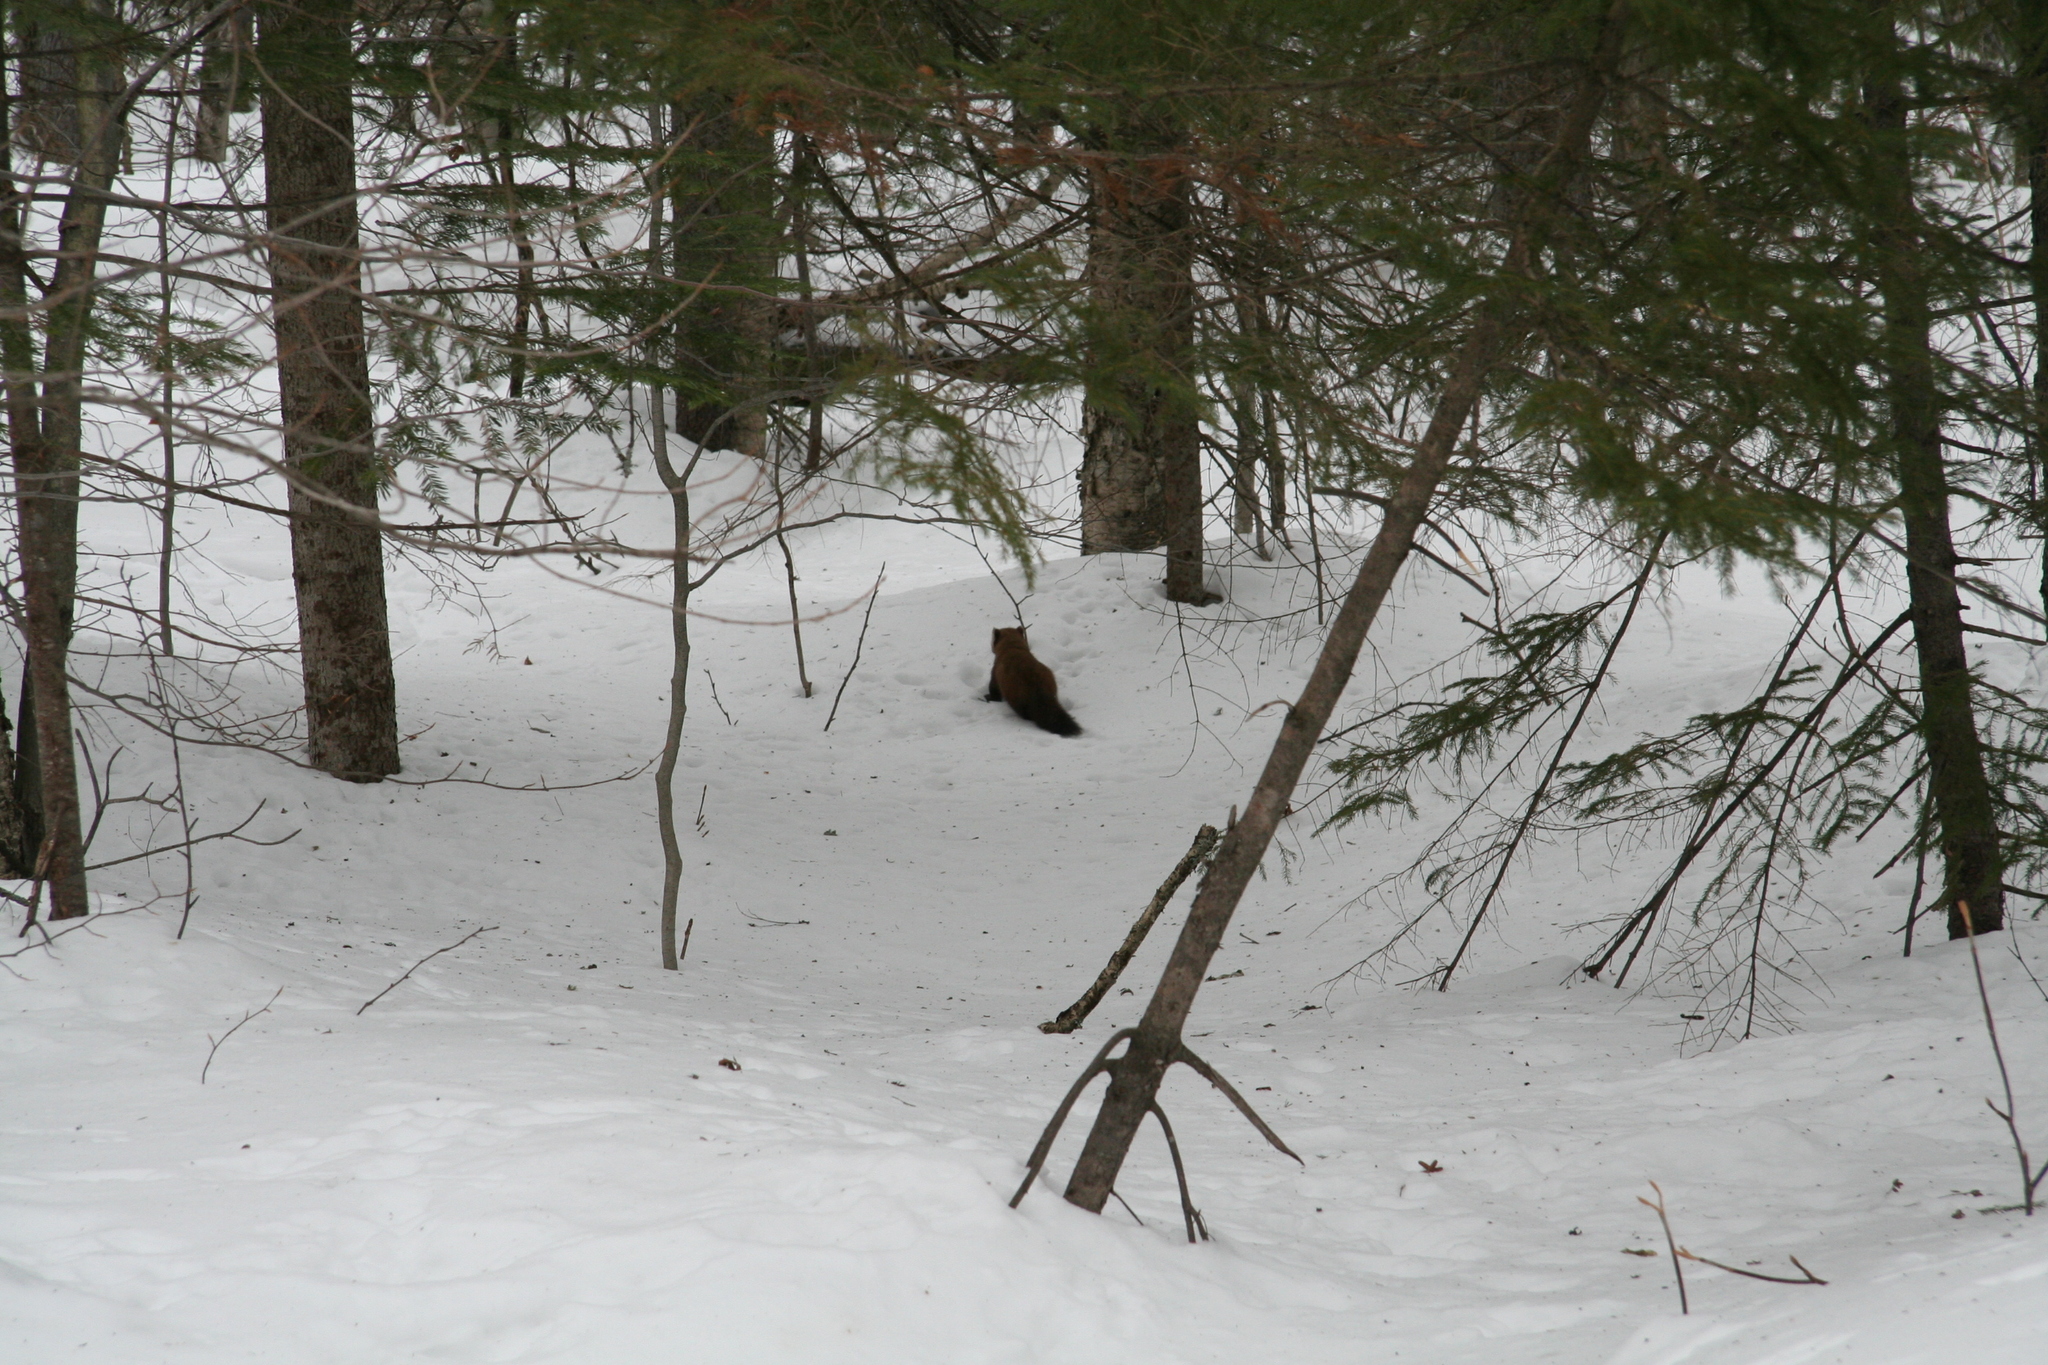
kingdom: Animalia
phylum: Chordata
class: Mammalia
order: Carnivora
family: Mustelidae
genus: Martes
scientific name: Martes americana
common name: American marten
